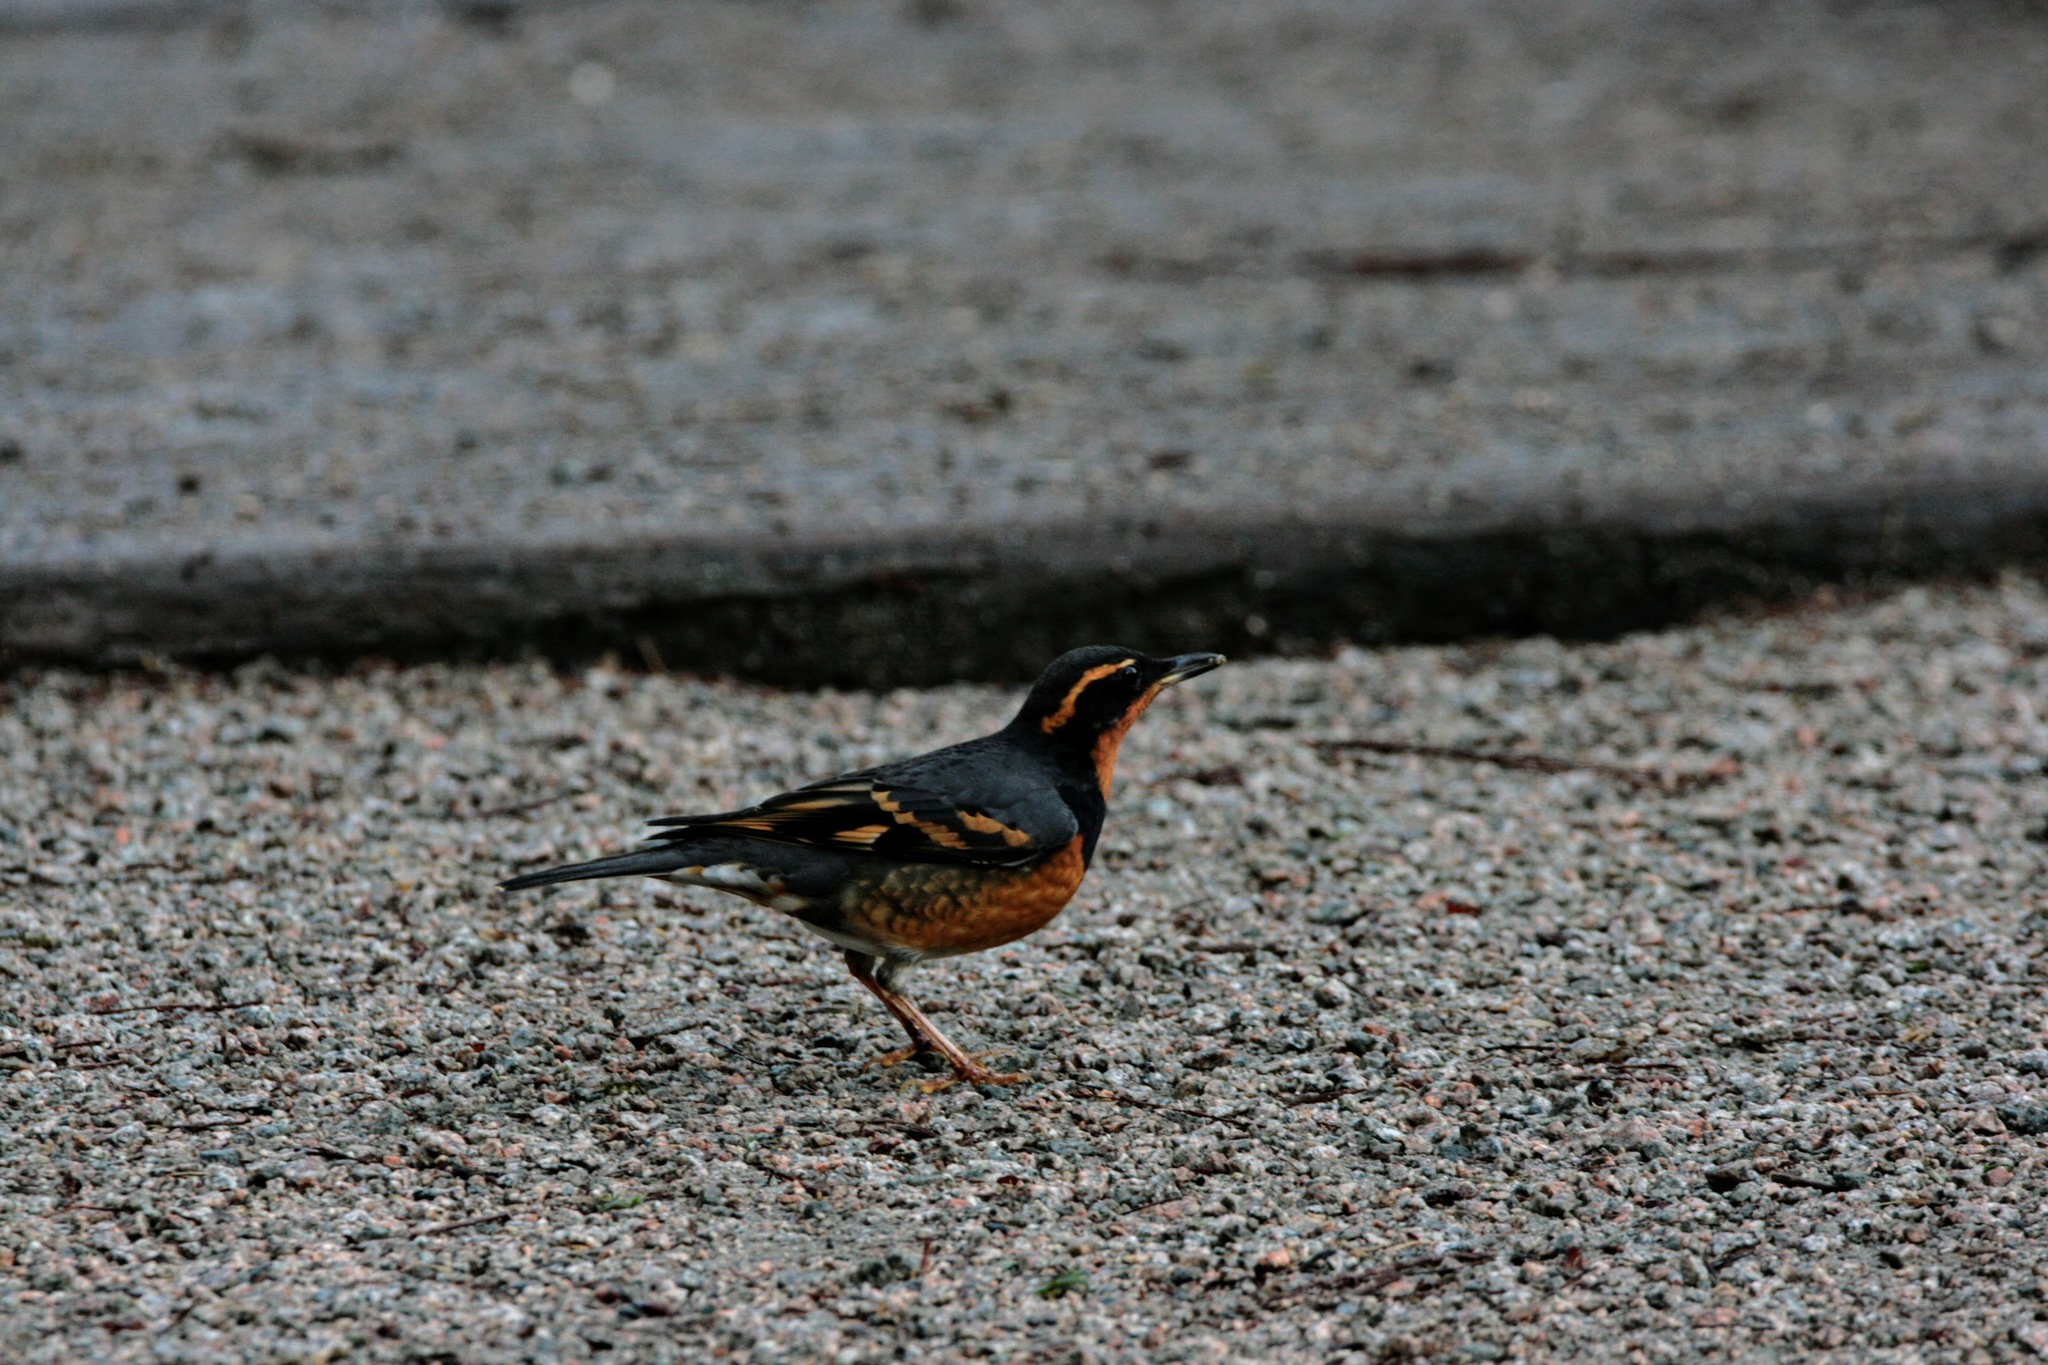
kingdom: Animalia
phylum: Chordata
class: Aves
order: Passeriformes
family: Turdidae
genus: Ixoreus
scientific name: Ixoreus naevius
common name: Varied thrush
